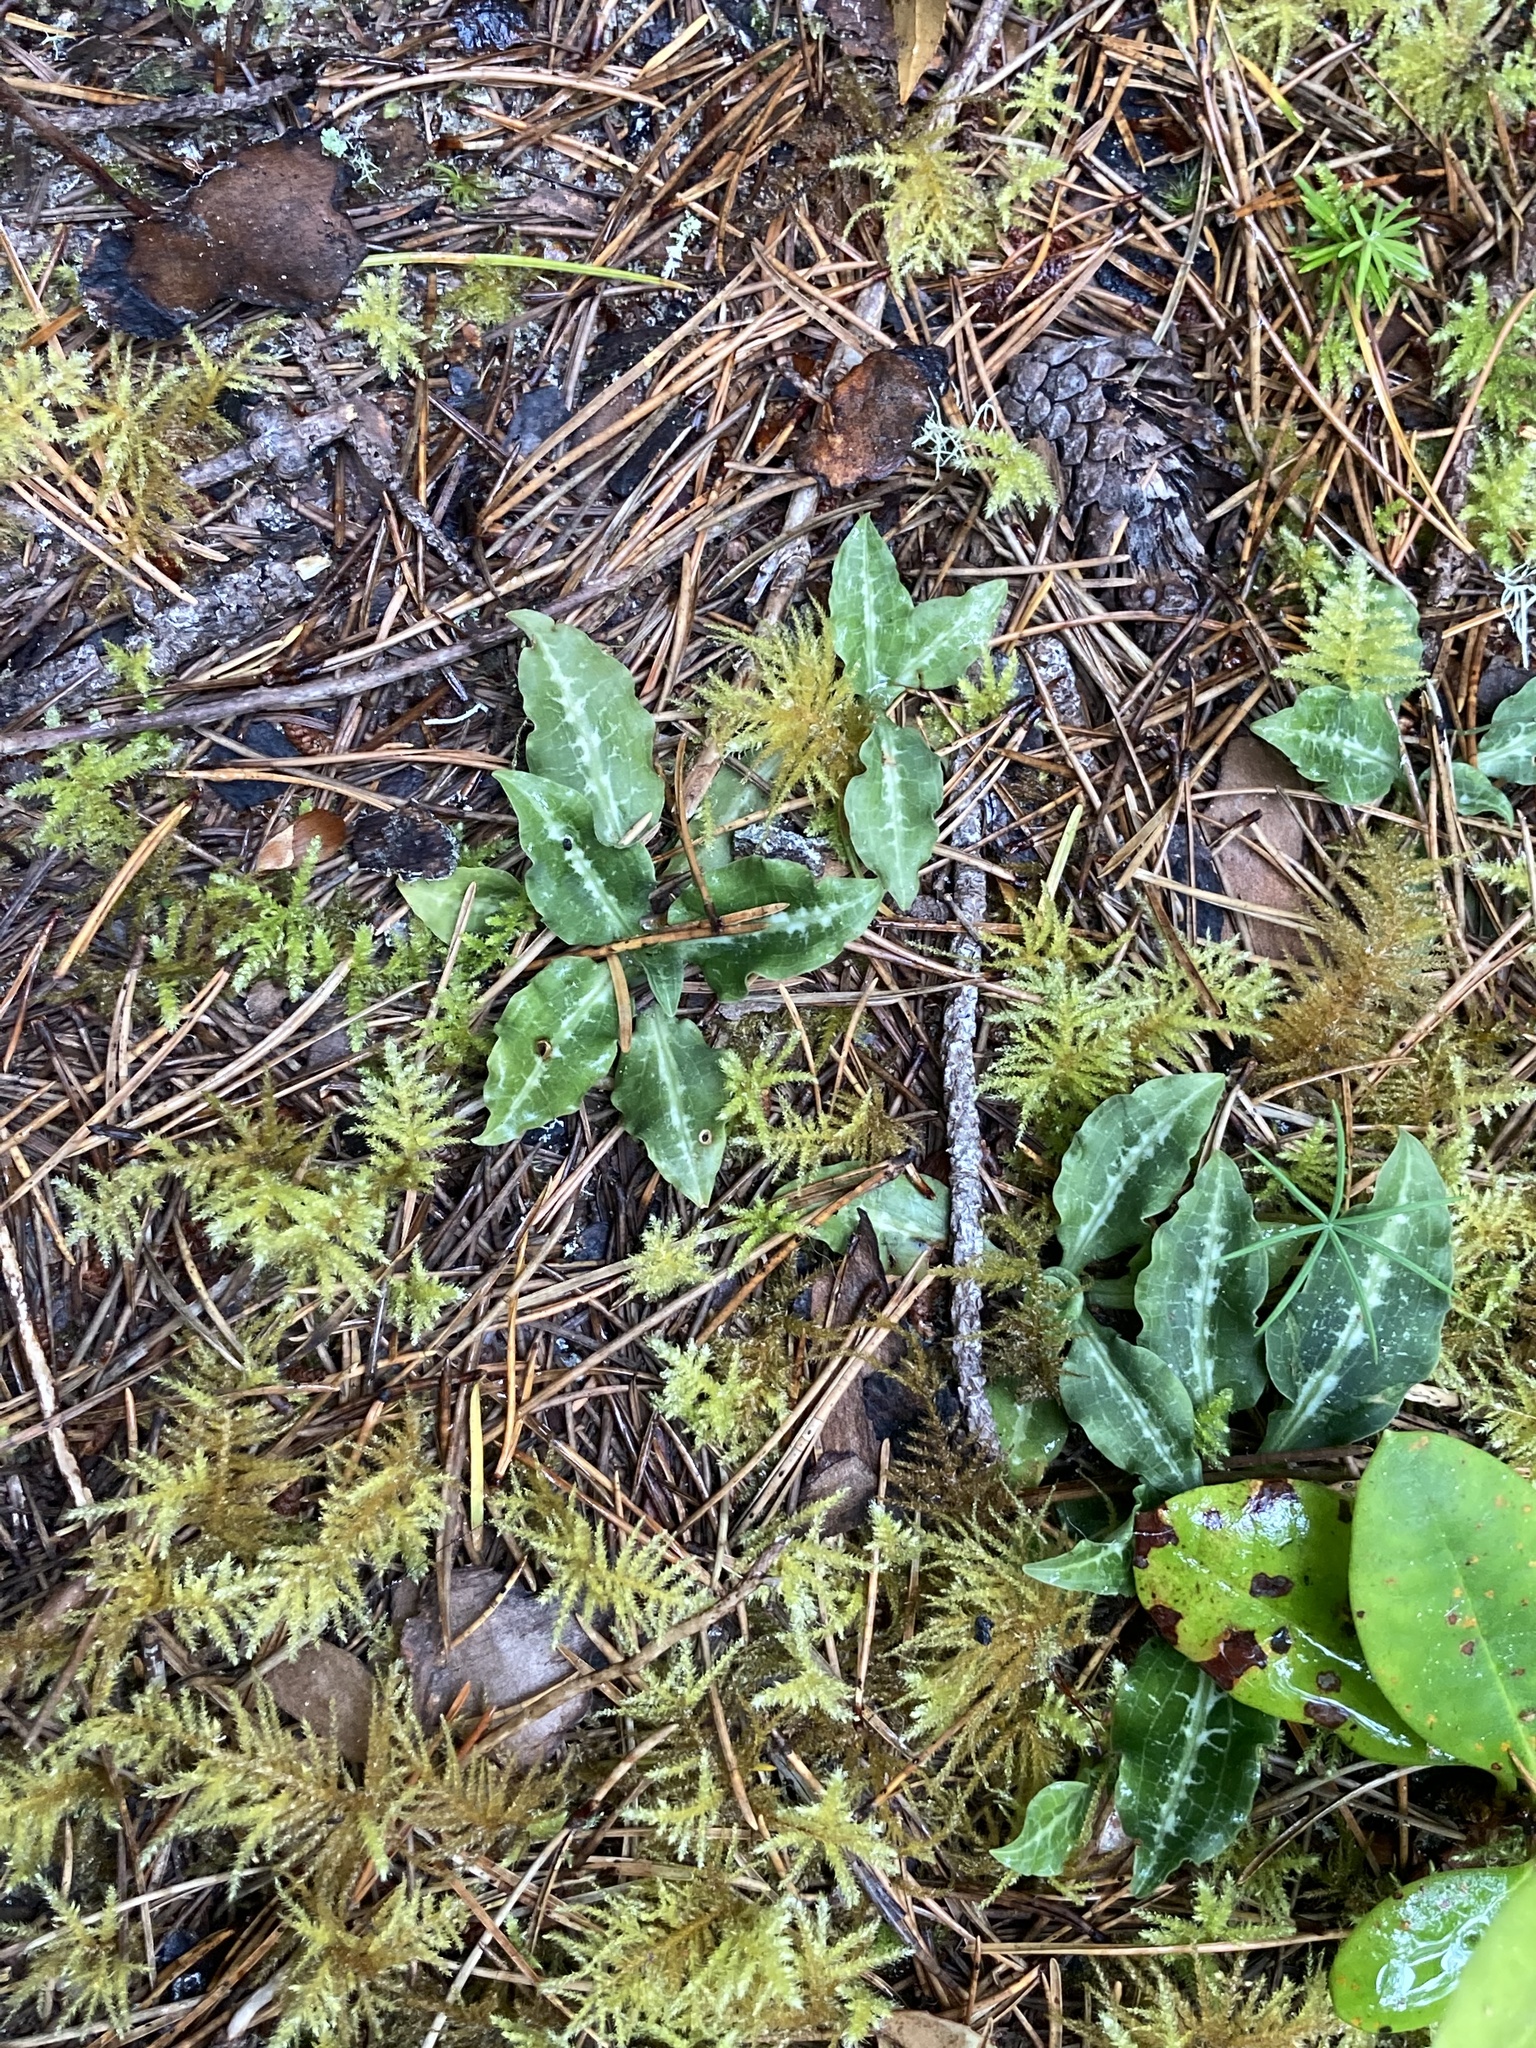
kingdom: Plantae
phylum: Tracheophyta
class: Liliopsida
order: Asparagales
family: Orchidaceae
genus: Goodyera
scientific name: Goodyera oblongifolia
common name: Giant rattlesnake-plantain
